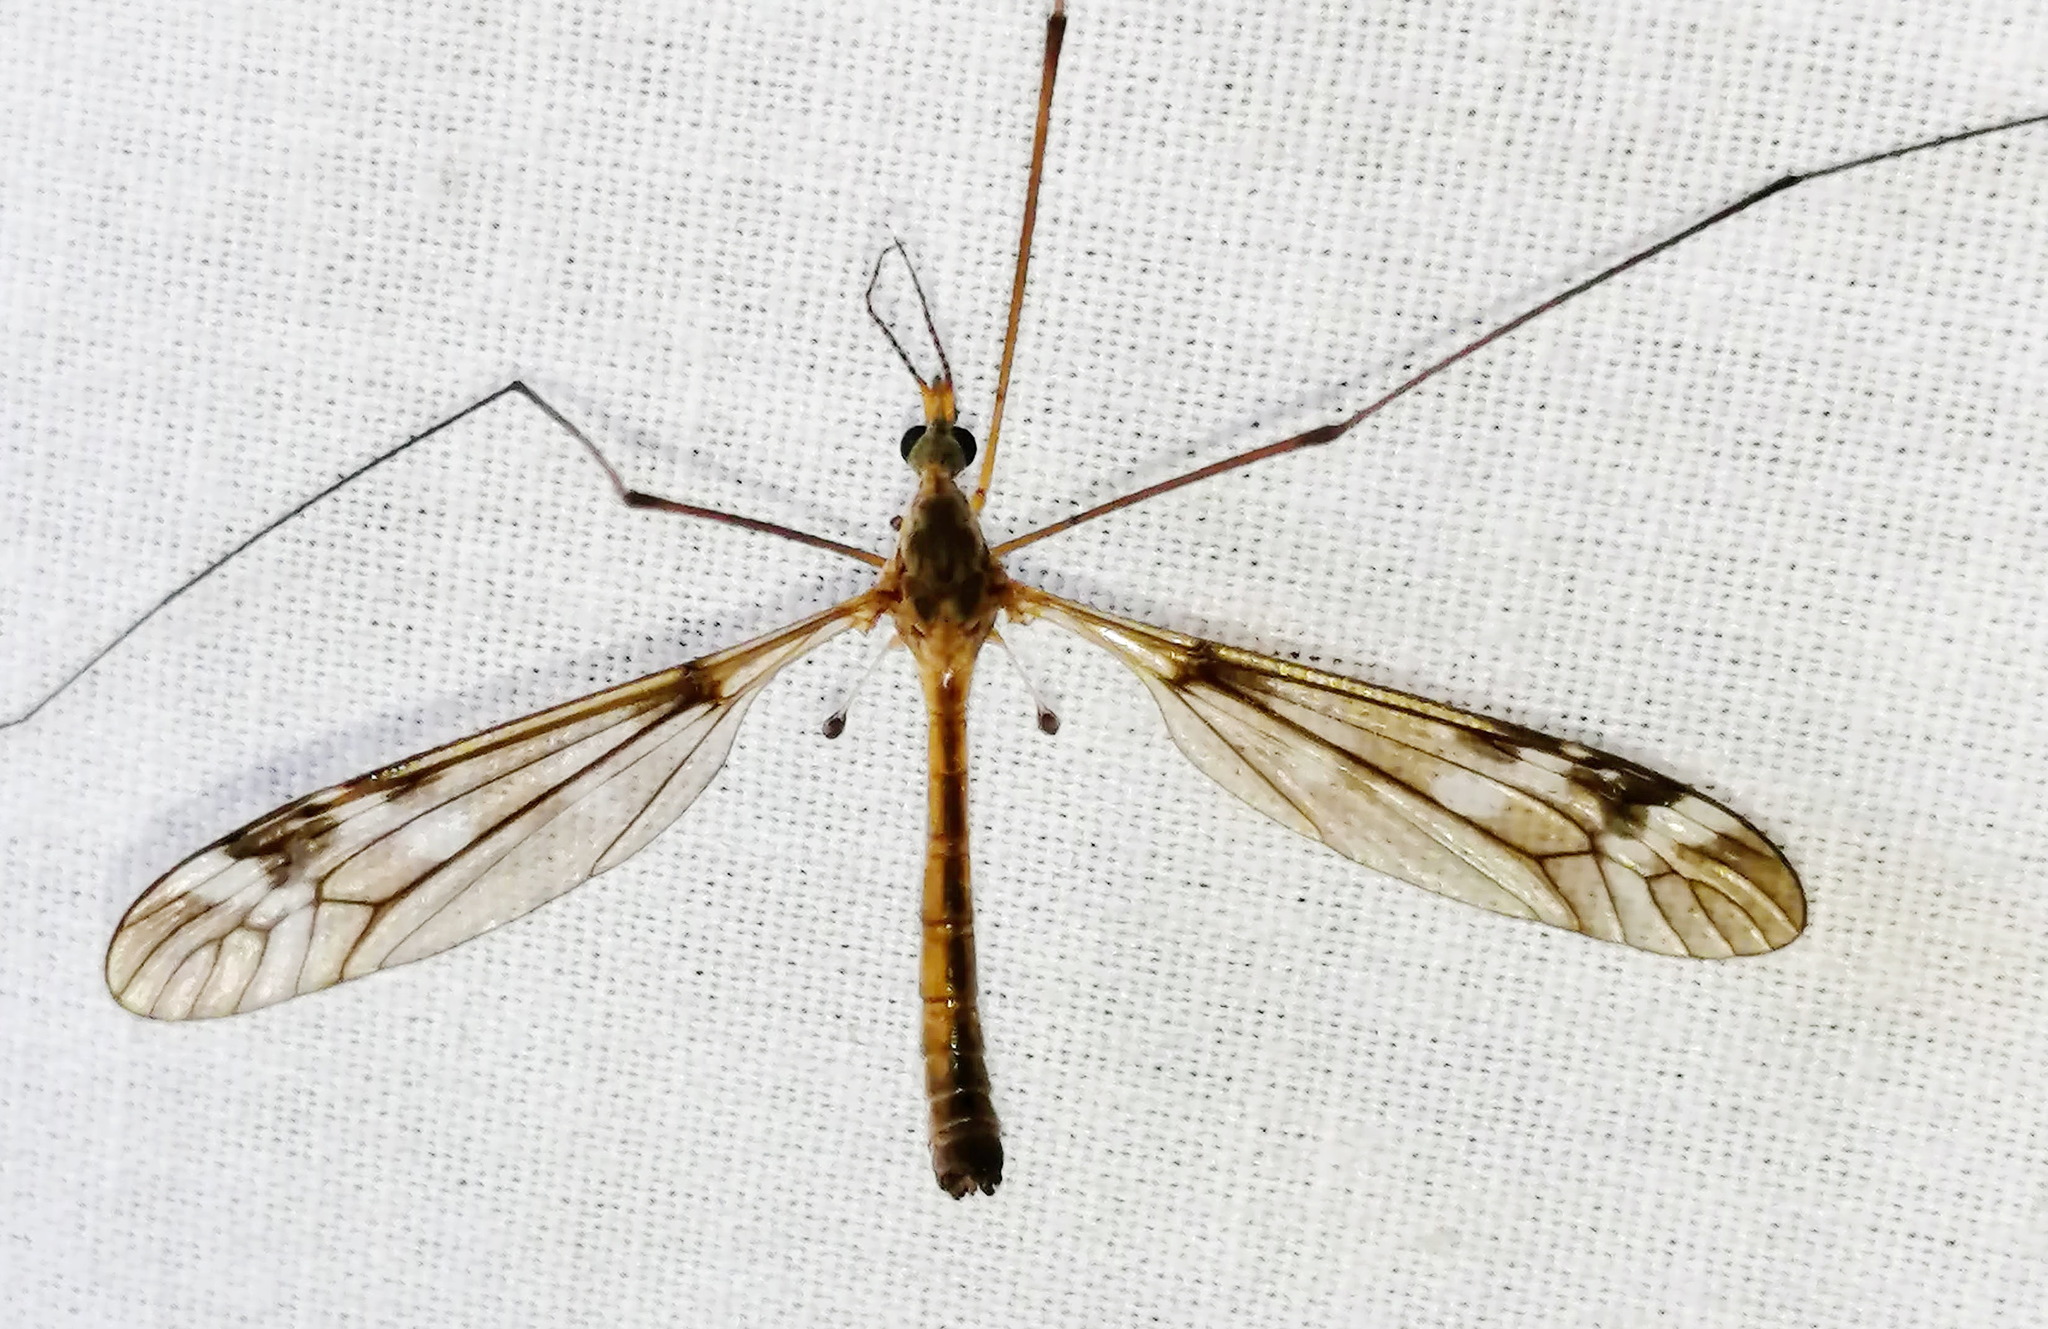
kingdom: Animalia
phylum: Arthropoda
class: Insecta
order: Diptera
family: Tipulidae
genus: Tipula
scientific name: Tipula longiventris
